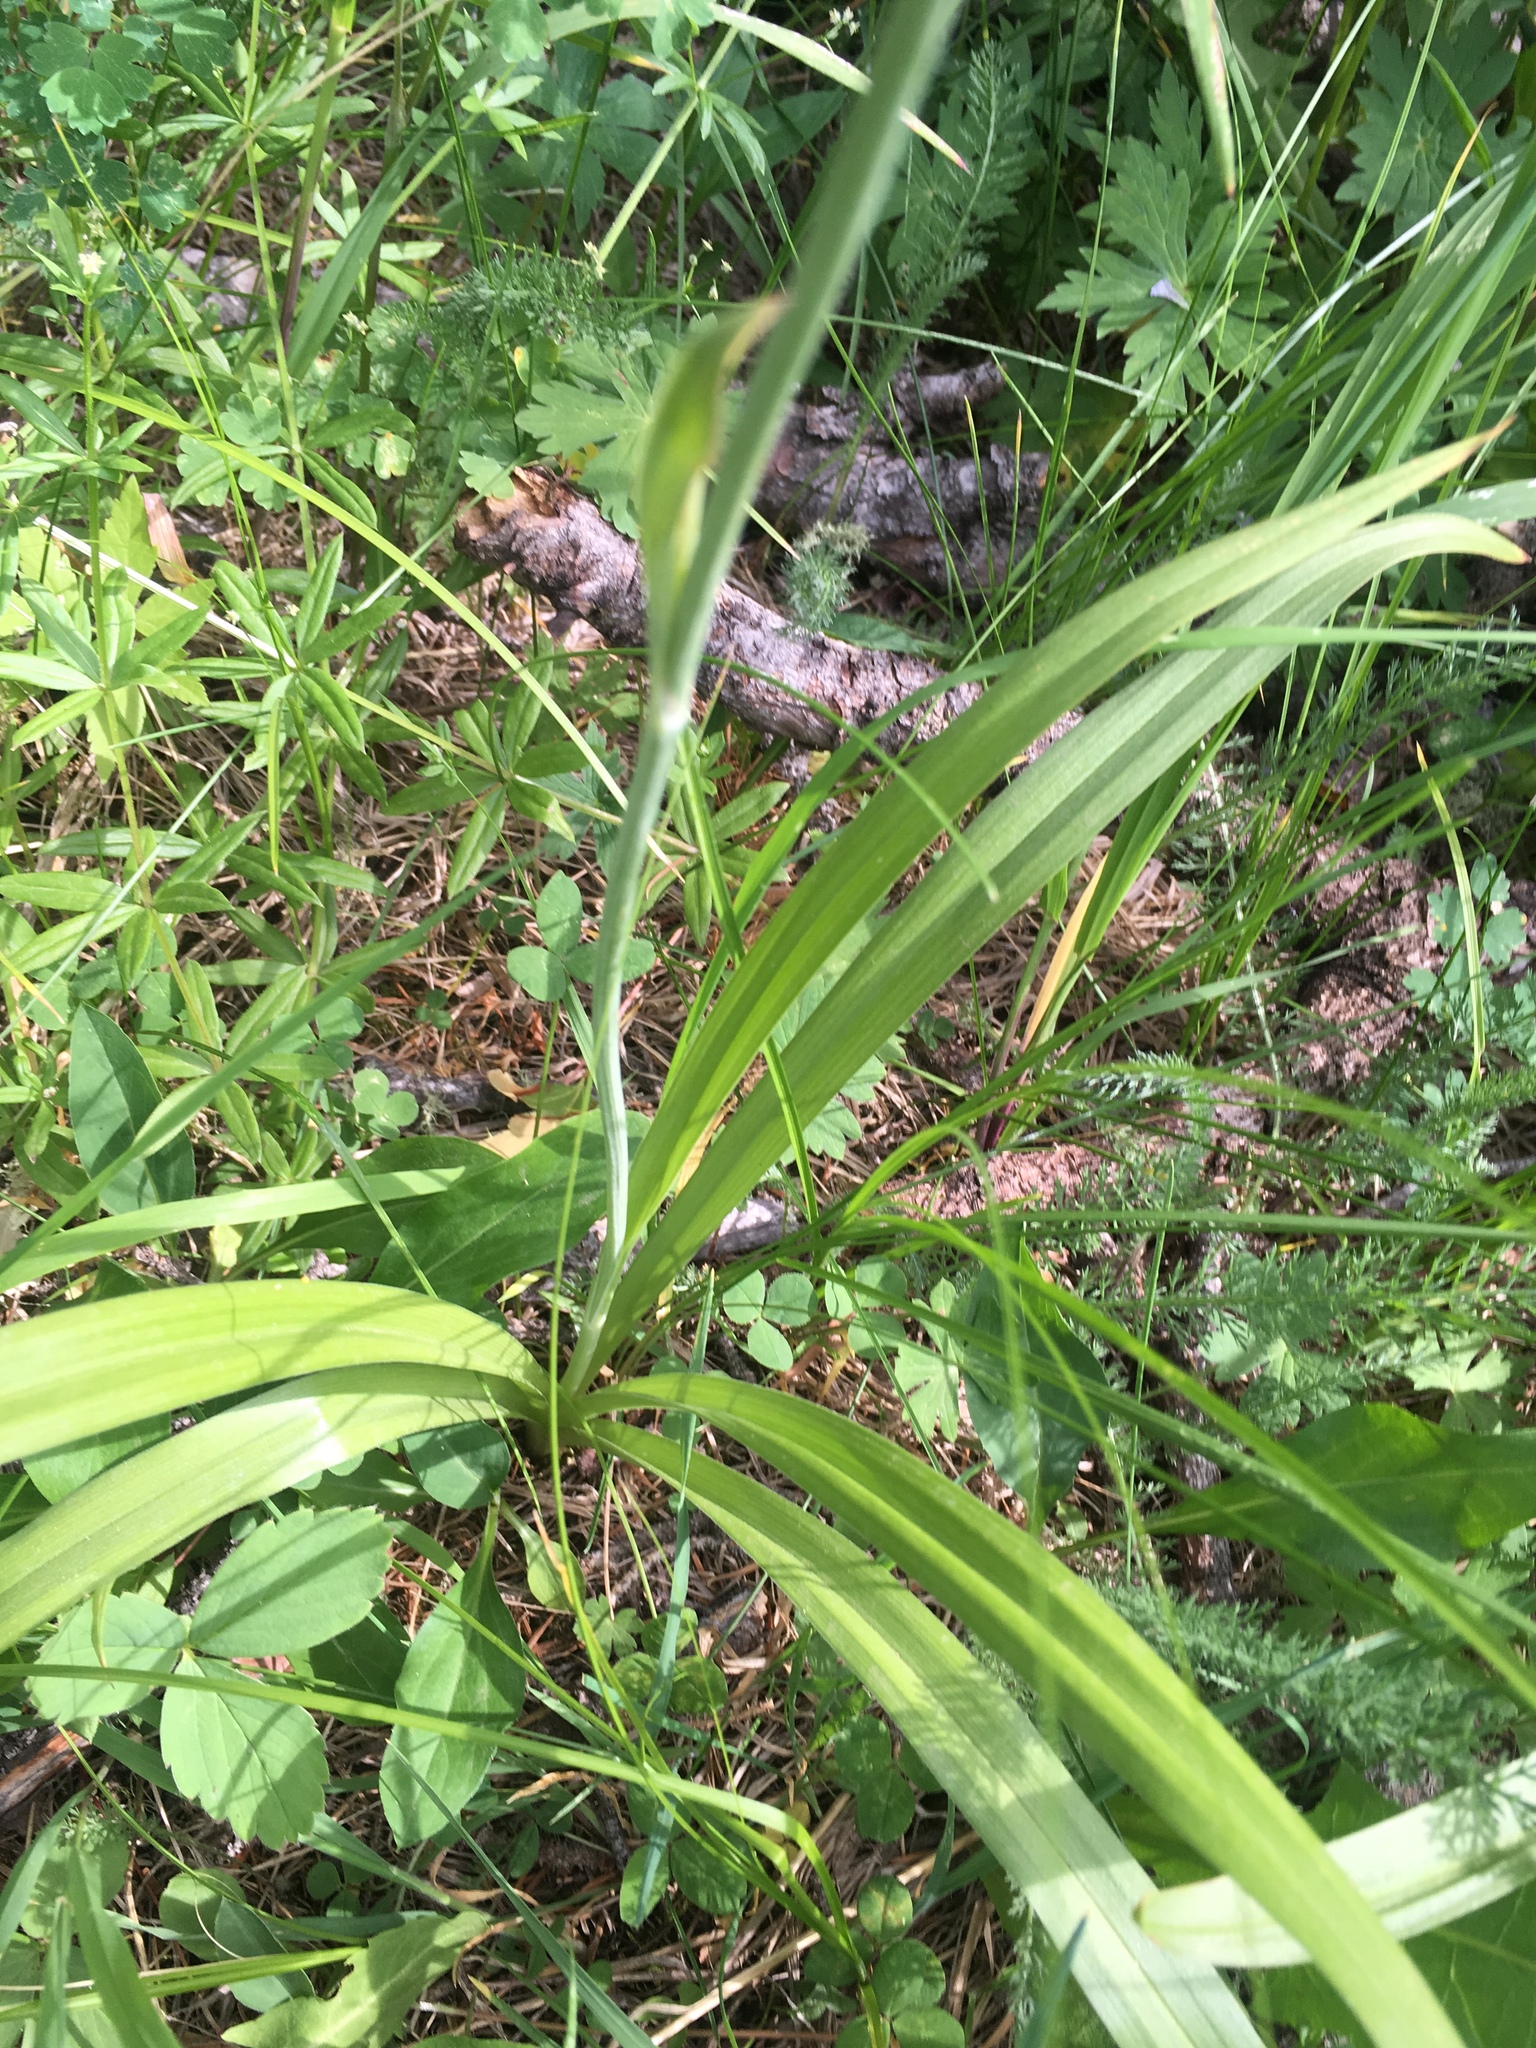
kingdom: Plantae
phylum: Tracheophyta
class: Liliopsida
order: Liliales
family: Melanthiaceae
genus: Anticlea
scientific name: Anticlea elegans
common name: Mountain death camas
